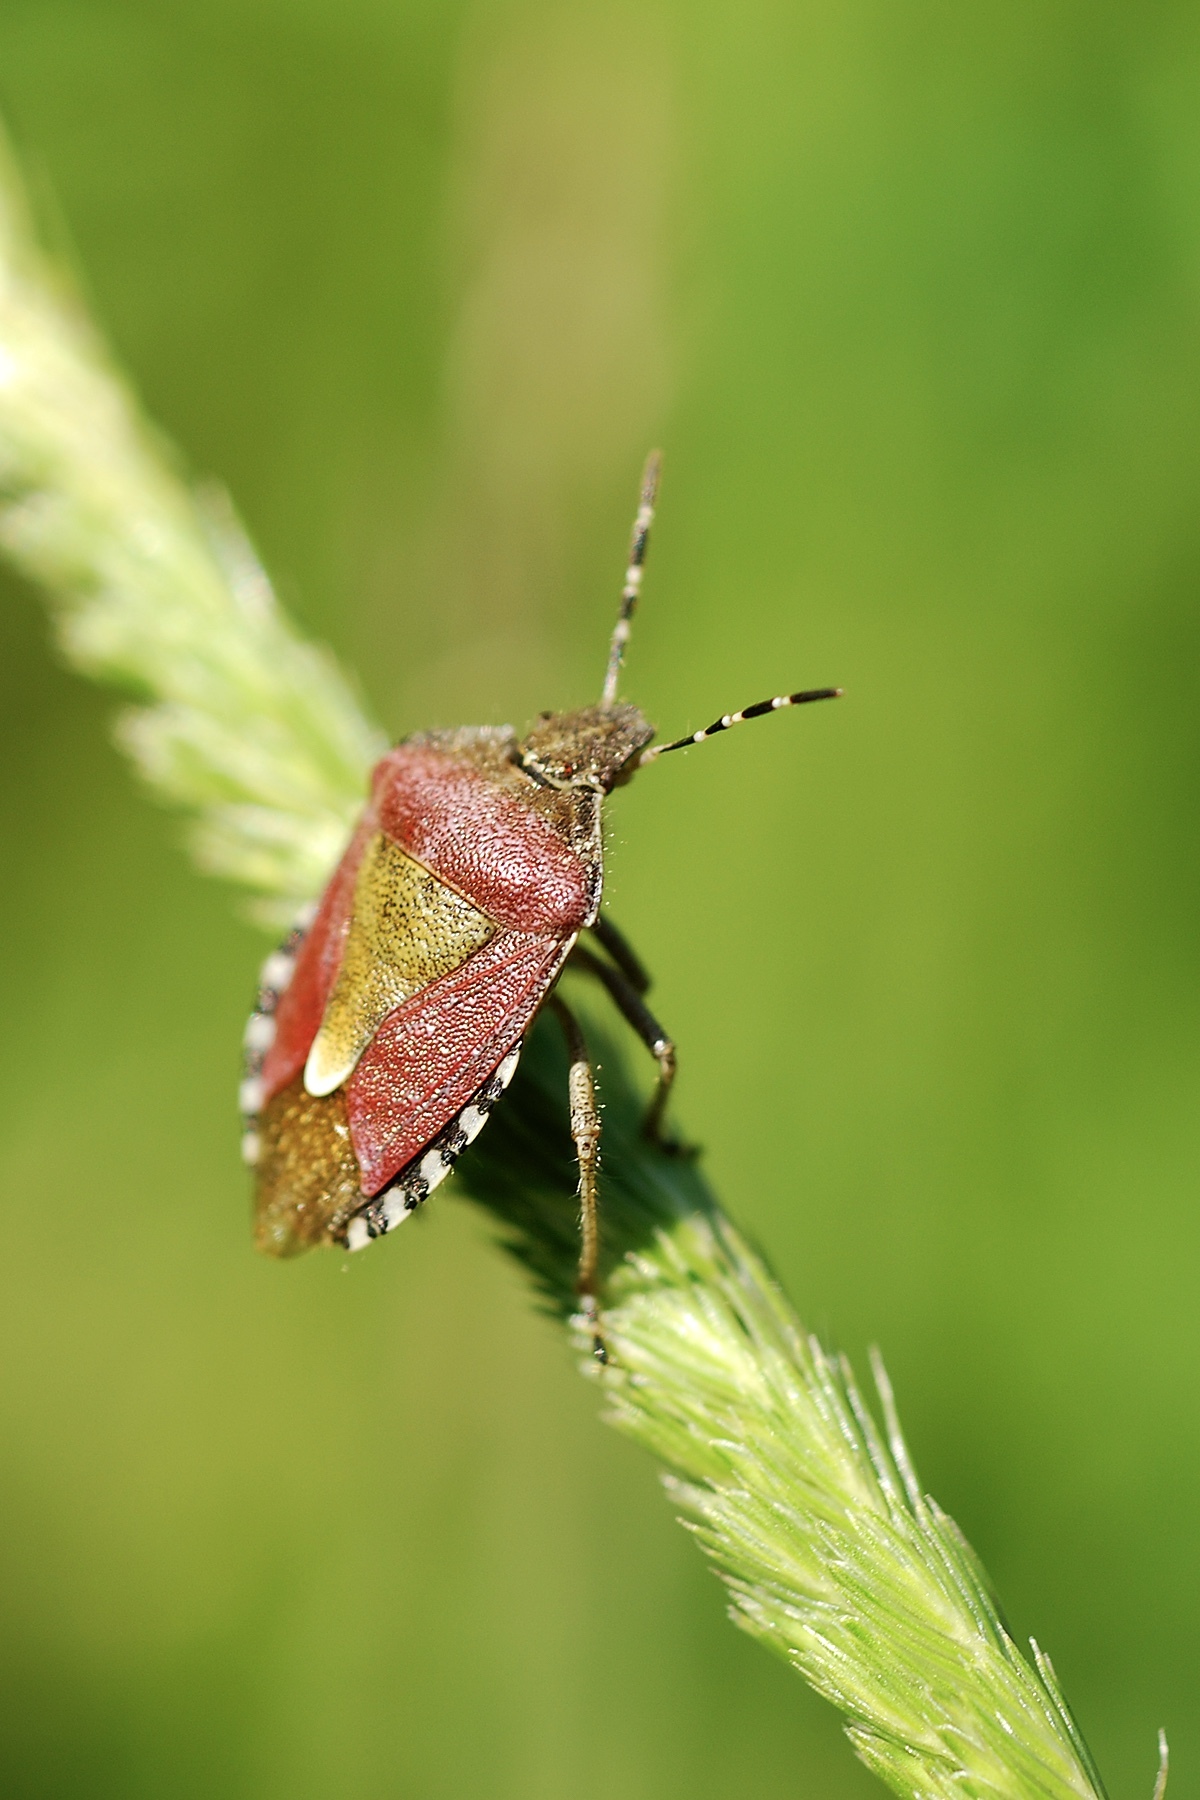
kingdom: Animalia
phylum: Arthropoda
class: Insecta
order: Hemiptera
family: Pentatomidae
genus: Dolycoris
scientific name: Dolycoris baccarum
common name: Sloe bug
